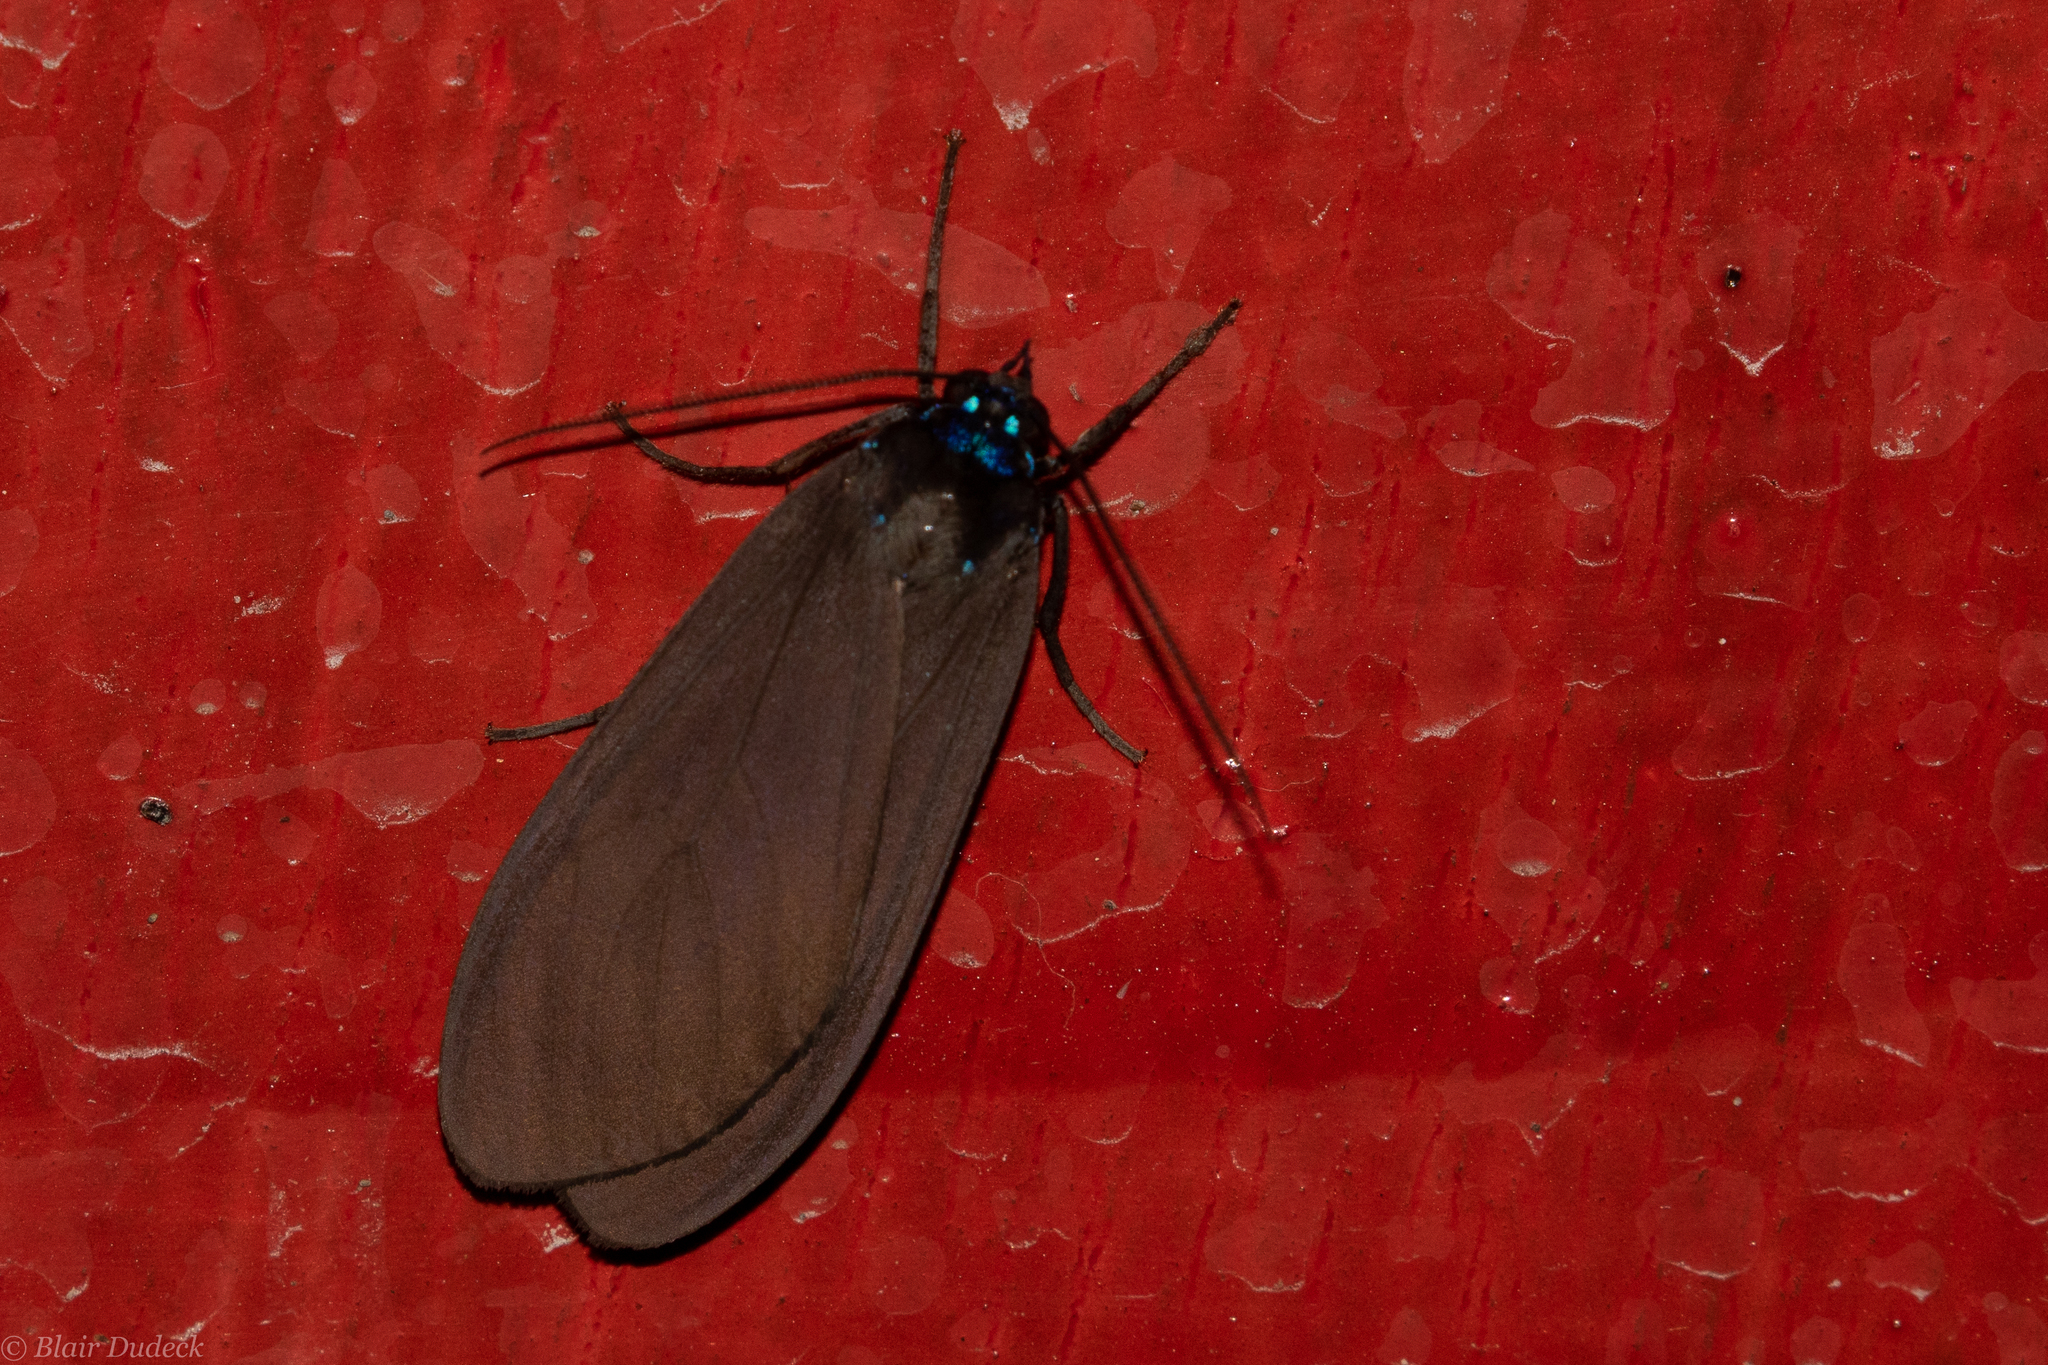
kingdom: Animalia
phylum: Arthropoda
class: Insecta
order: Lepidoptera
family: Erebidae
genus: Opharus
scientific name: Opharus procroides
